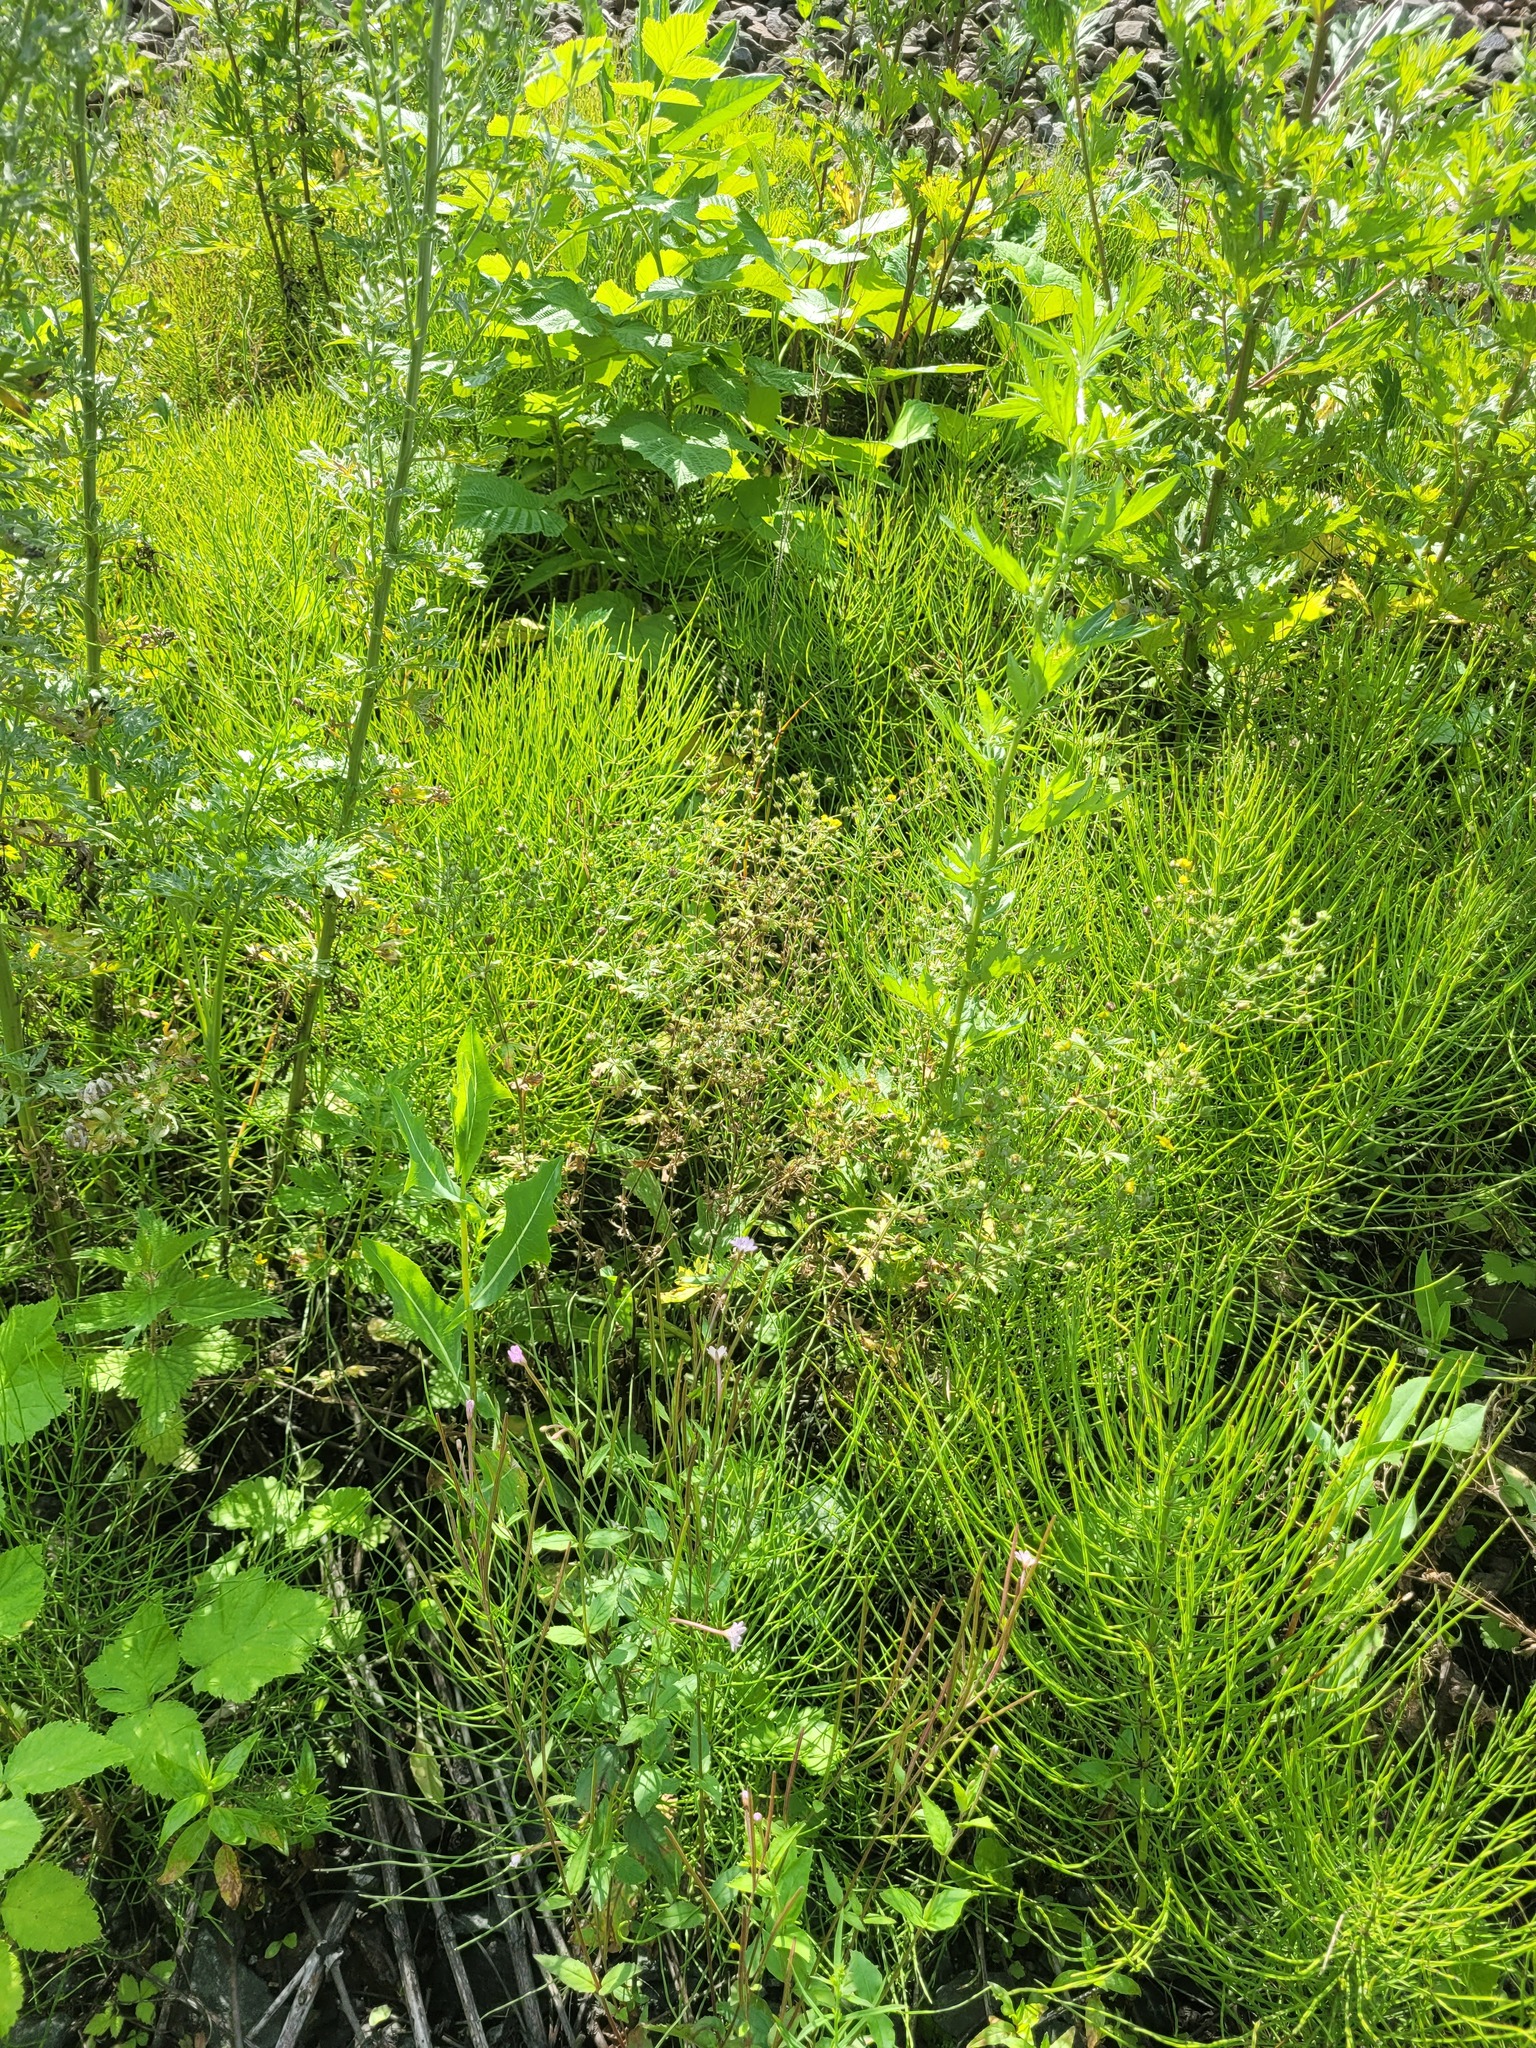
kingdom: Plantae
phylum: Tracheophyta
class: Magnoliopsida
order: Rosales
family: Rosaceae
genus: Potentilla
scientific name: Potentilla intermedia
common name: Downy cinquefoil
